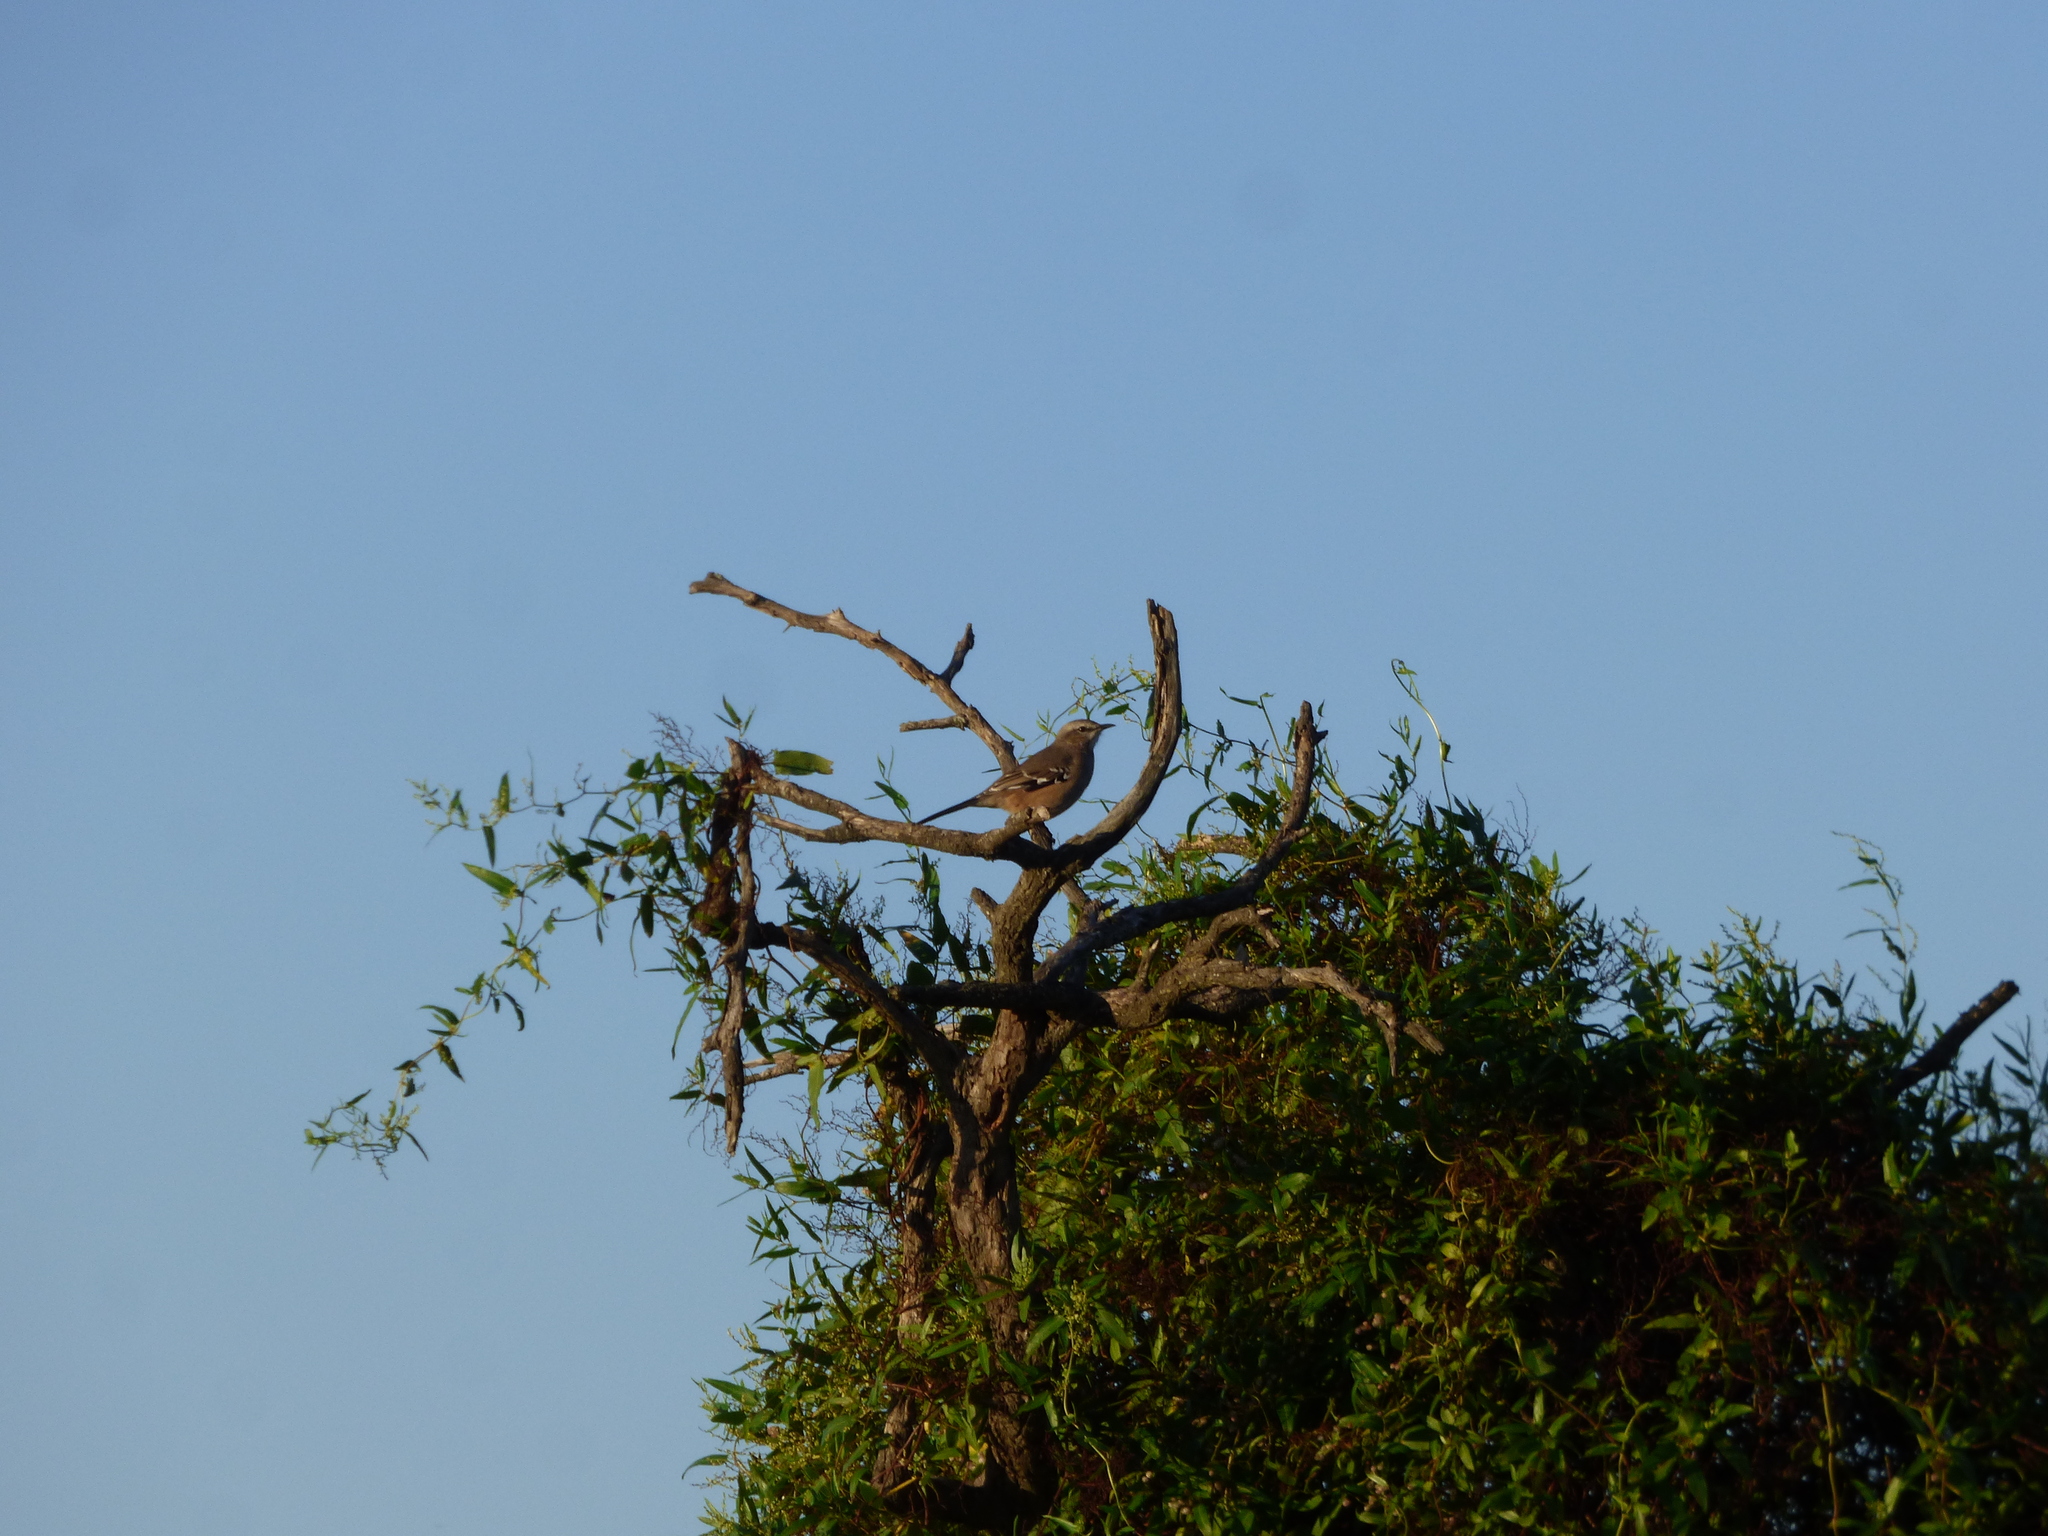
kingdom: Animalia
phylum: Chordata
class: Aves
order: Passeriformes
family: Mimidae
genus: Mimus
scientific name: Mimus patagonicus
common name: Patagonian mockingbird
